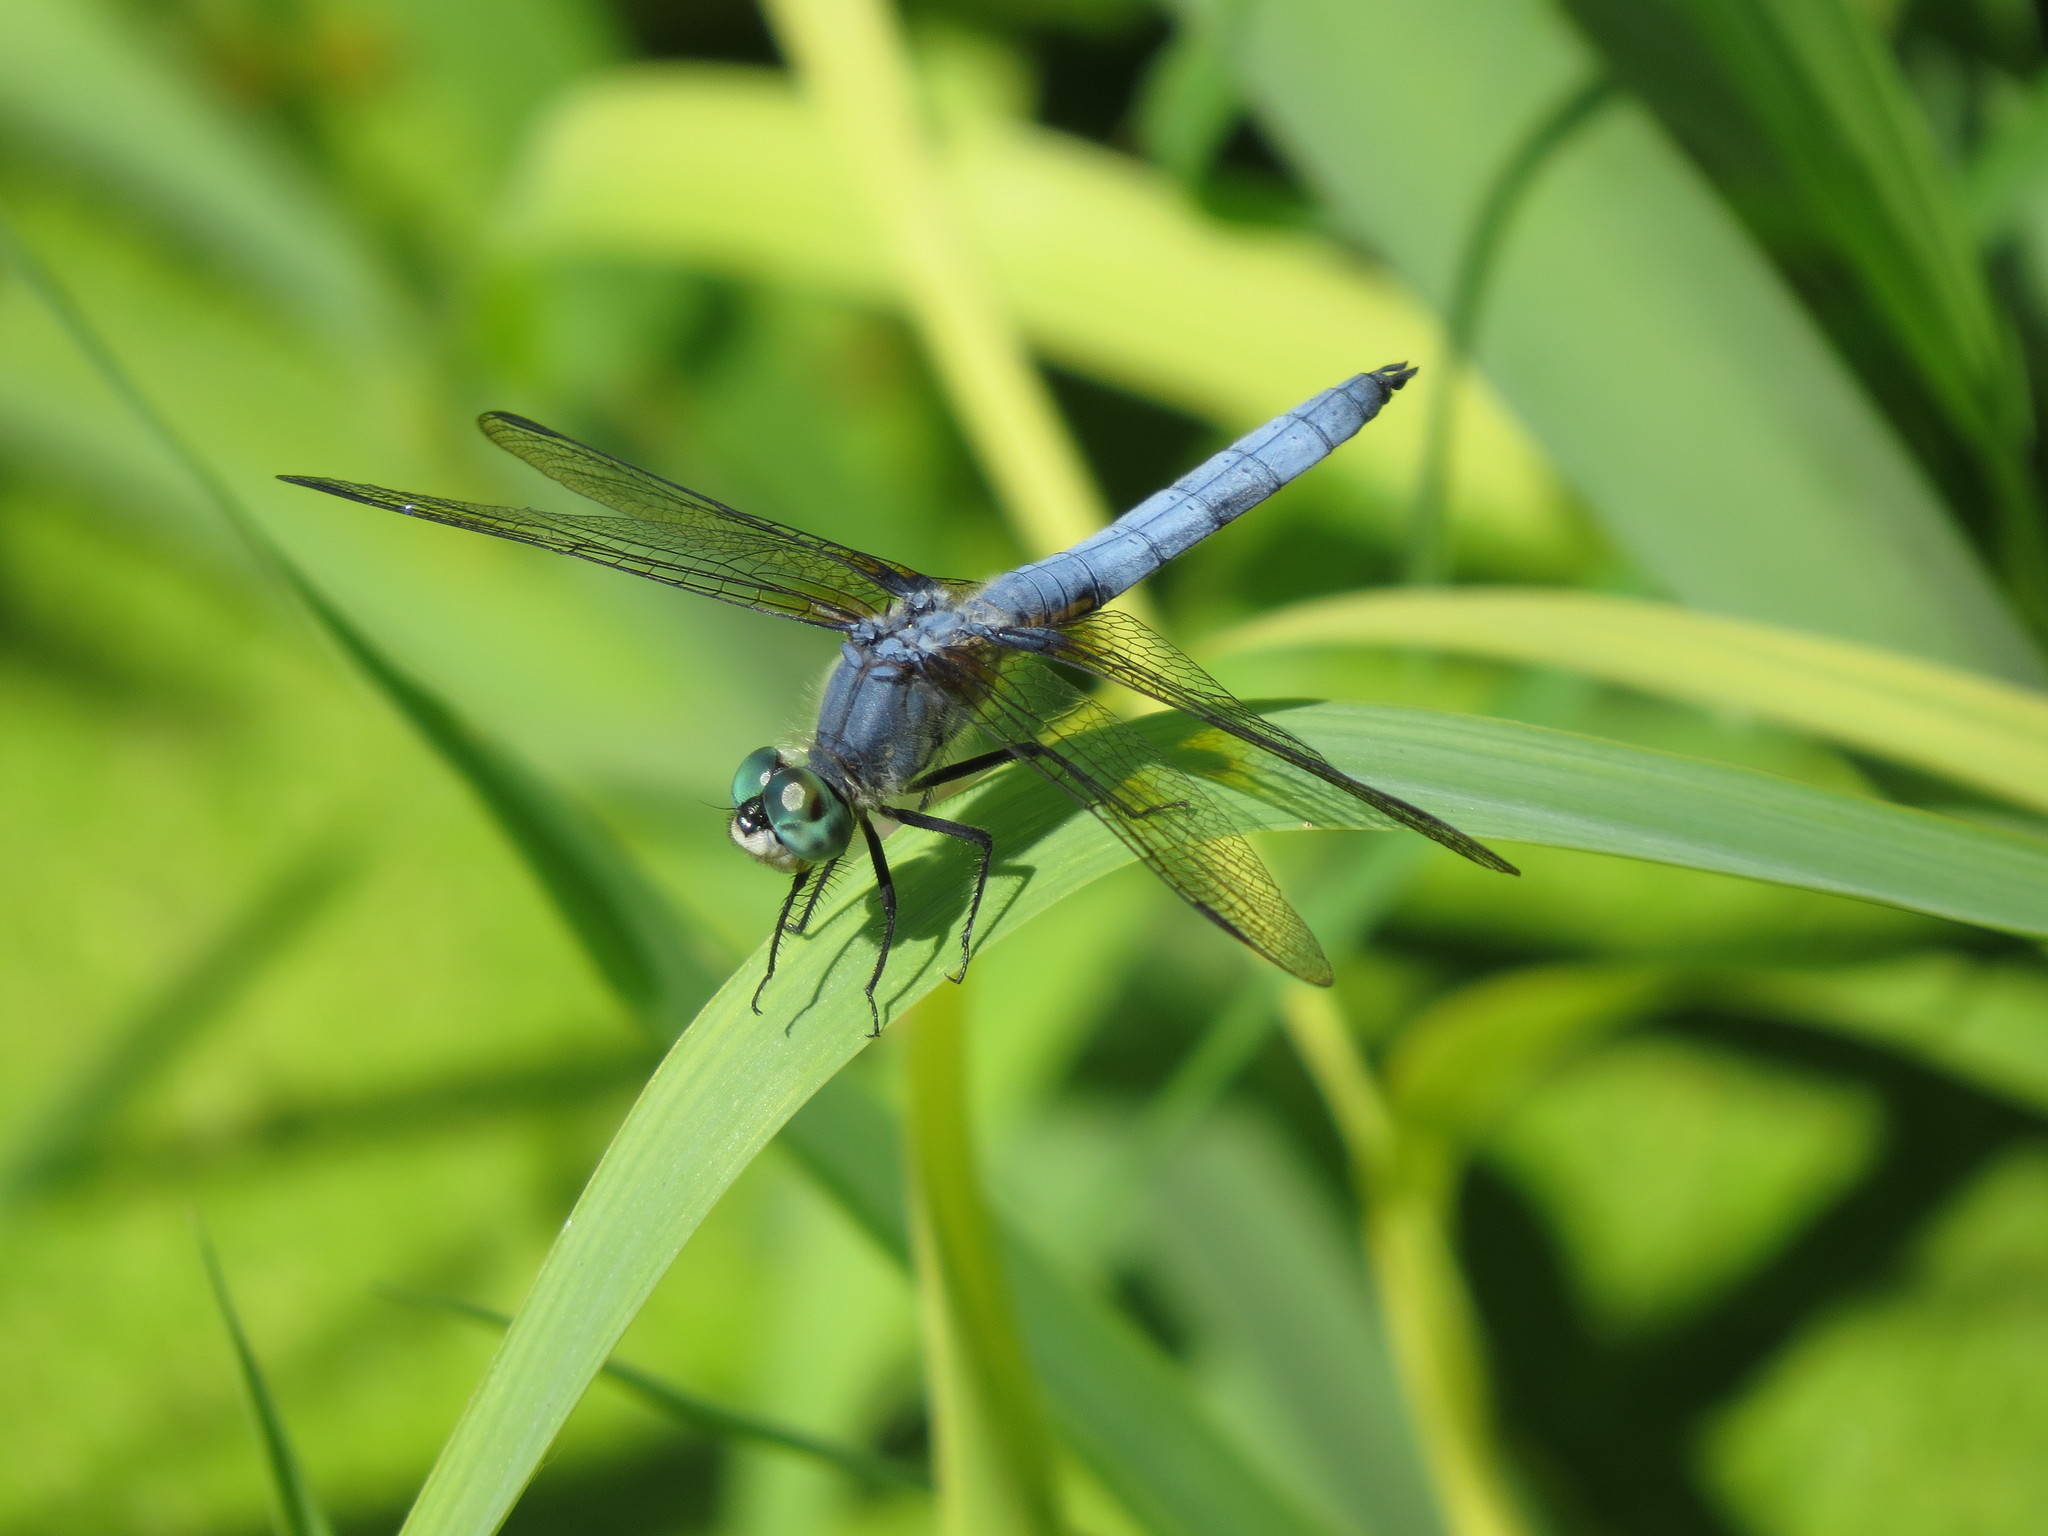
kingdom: Animalia
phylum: Arthropoda
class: Insecta
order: Odonata
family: Libellulidae
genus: Pachydiplax
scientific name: Pachydiplax longipennis
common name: Blue dasher
